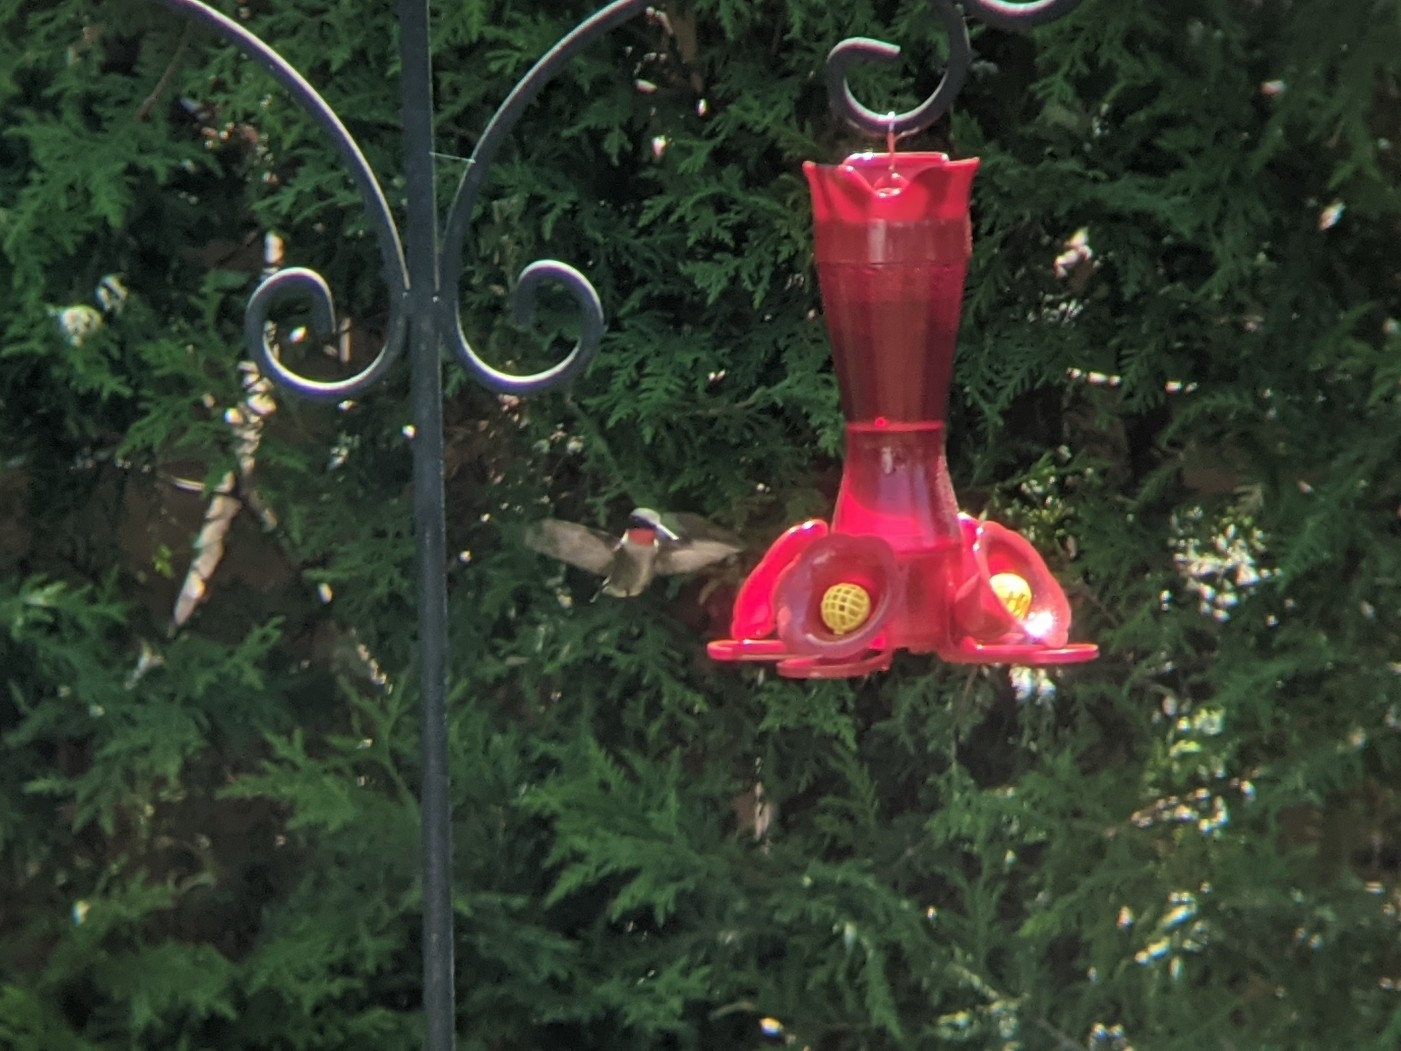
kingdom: Animalia
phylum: Chordata
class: Aves
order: Apodiformes
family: Trochilidae
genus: Archilochus
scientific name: Archilochus colubris
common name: Ruby-throated hummingbird
